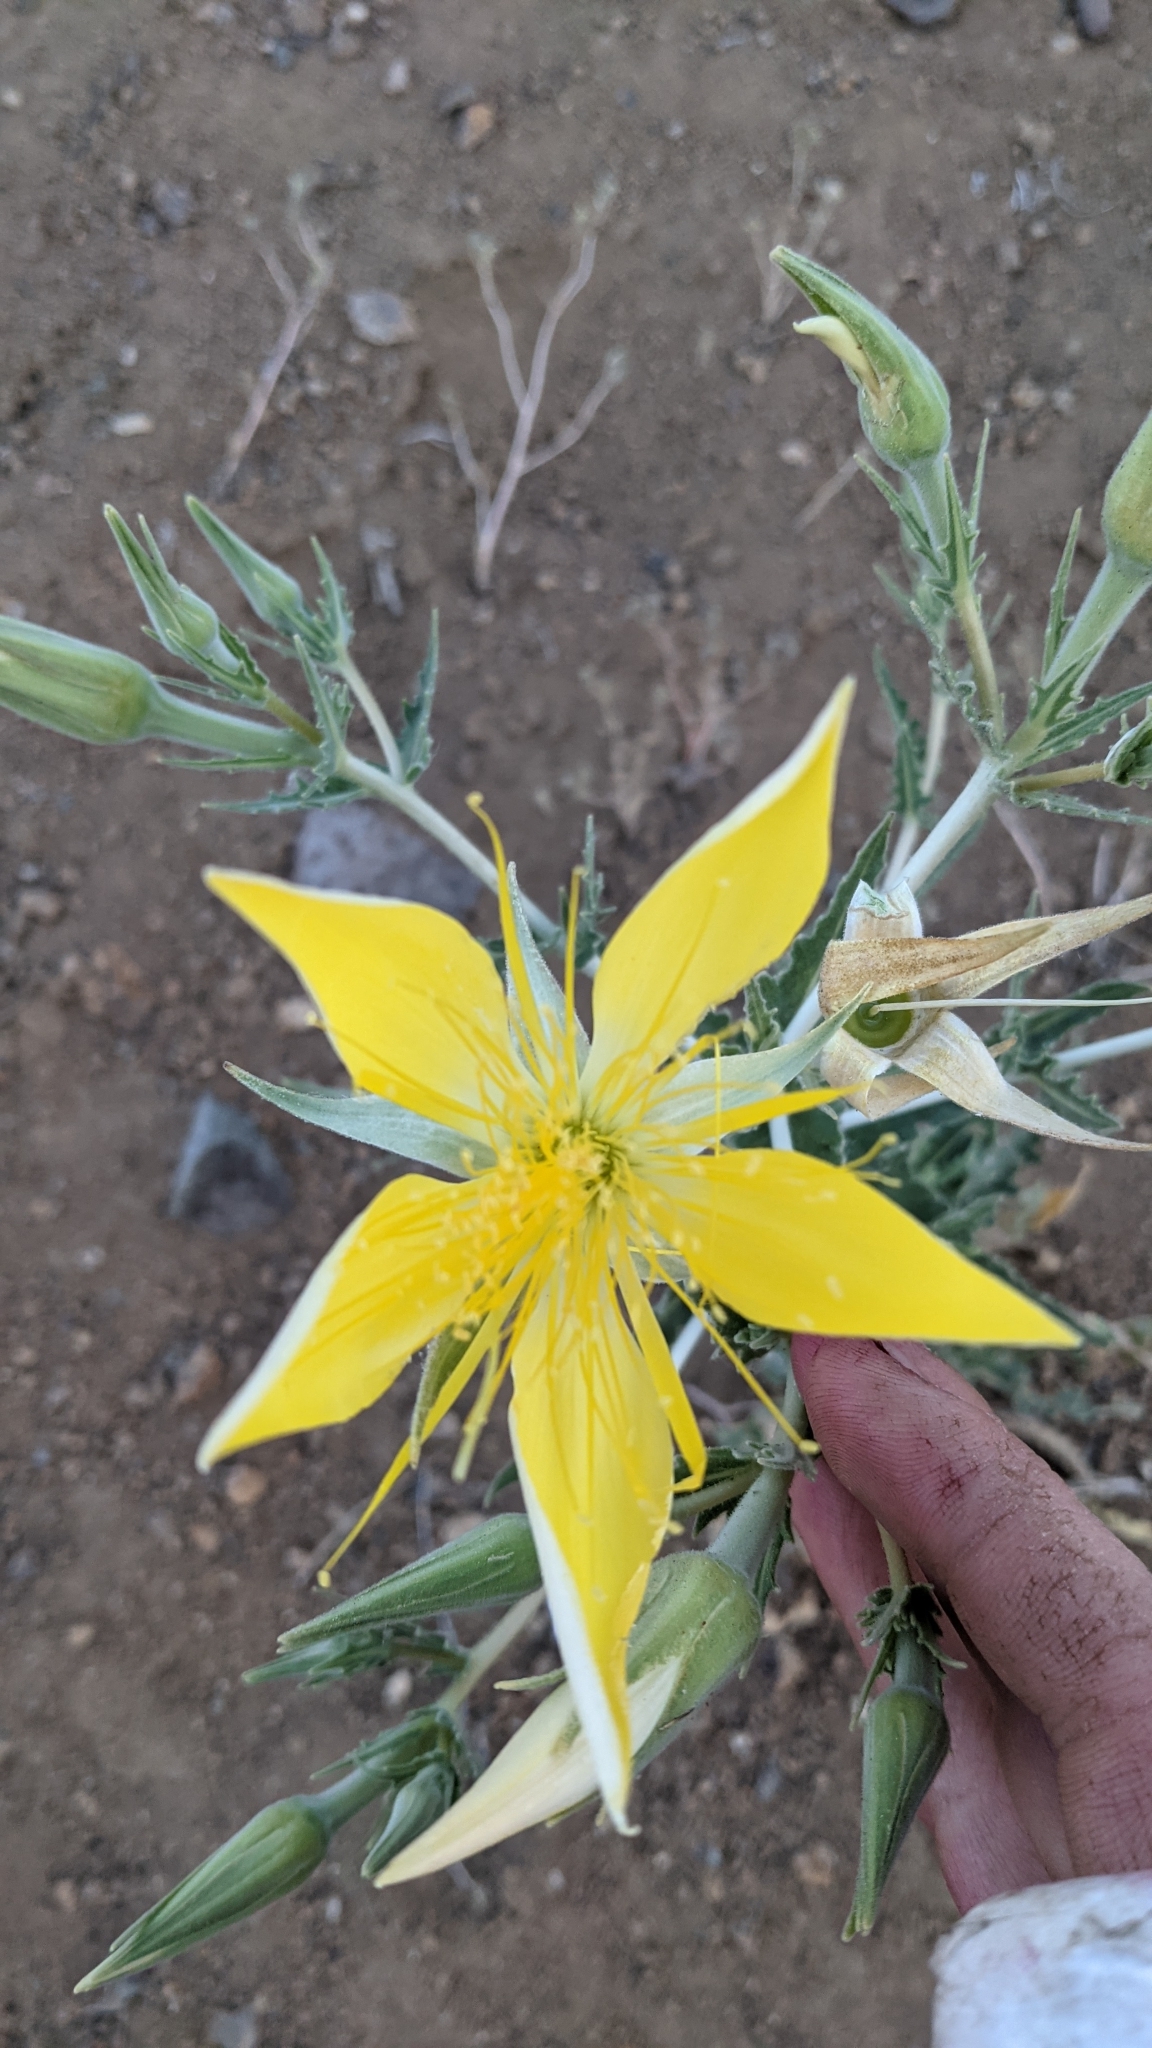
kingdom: Plantae
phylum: Tracheophyta
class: Magnoliopsida
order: Cornales
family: Loasaceae
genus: Mentzelia
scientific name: Mentzelia laevicaulis
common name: Smooth-stem blazingstar
